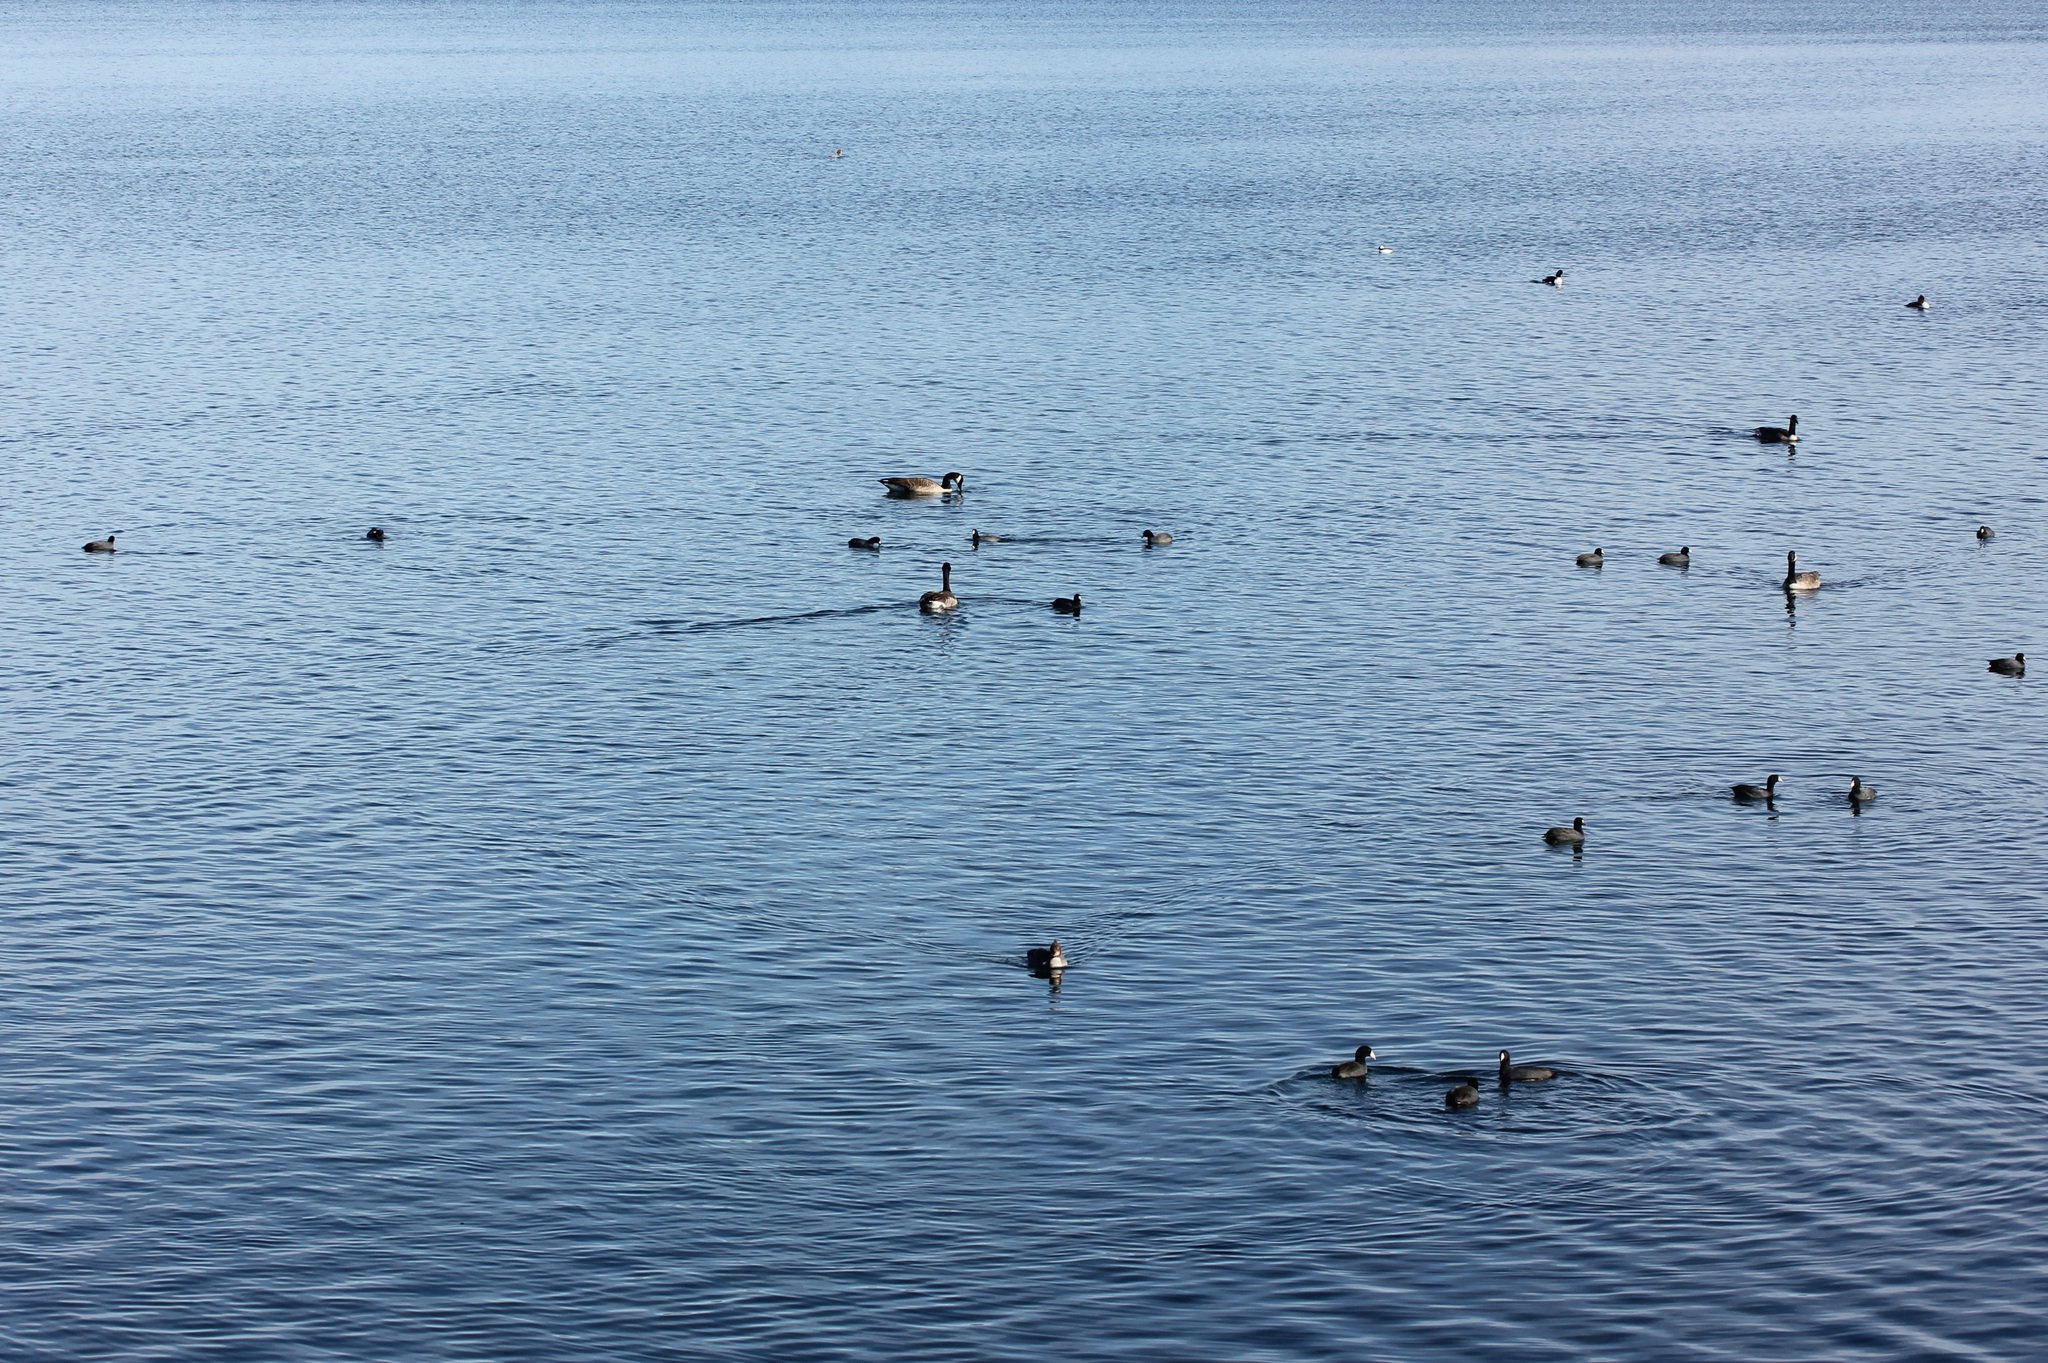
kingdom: Animalia
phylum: Chordata
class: Aves
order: Gruiformes
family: Rallidae
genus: Fulica
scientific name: Fulica americana
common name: American coot
